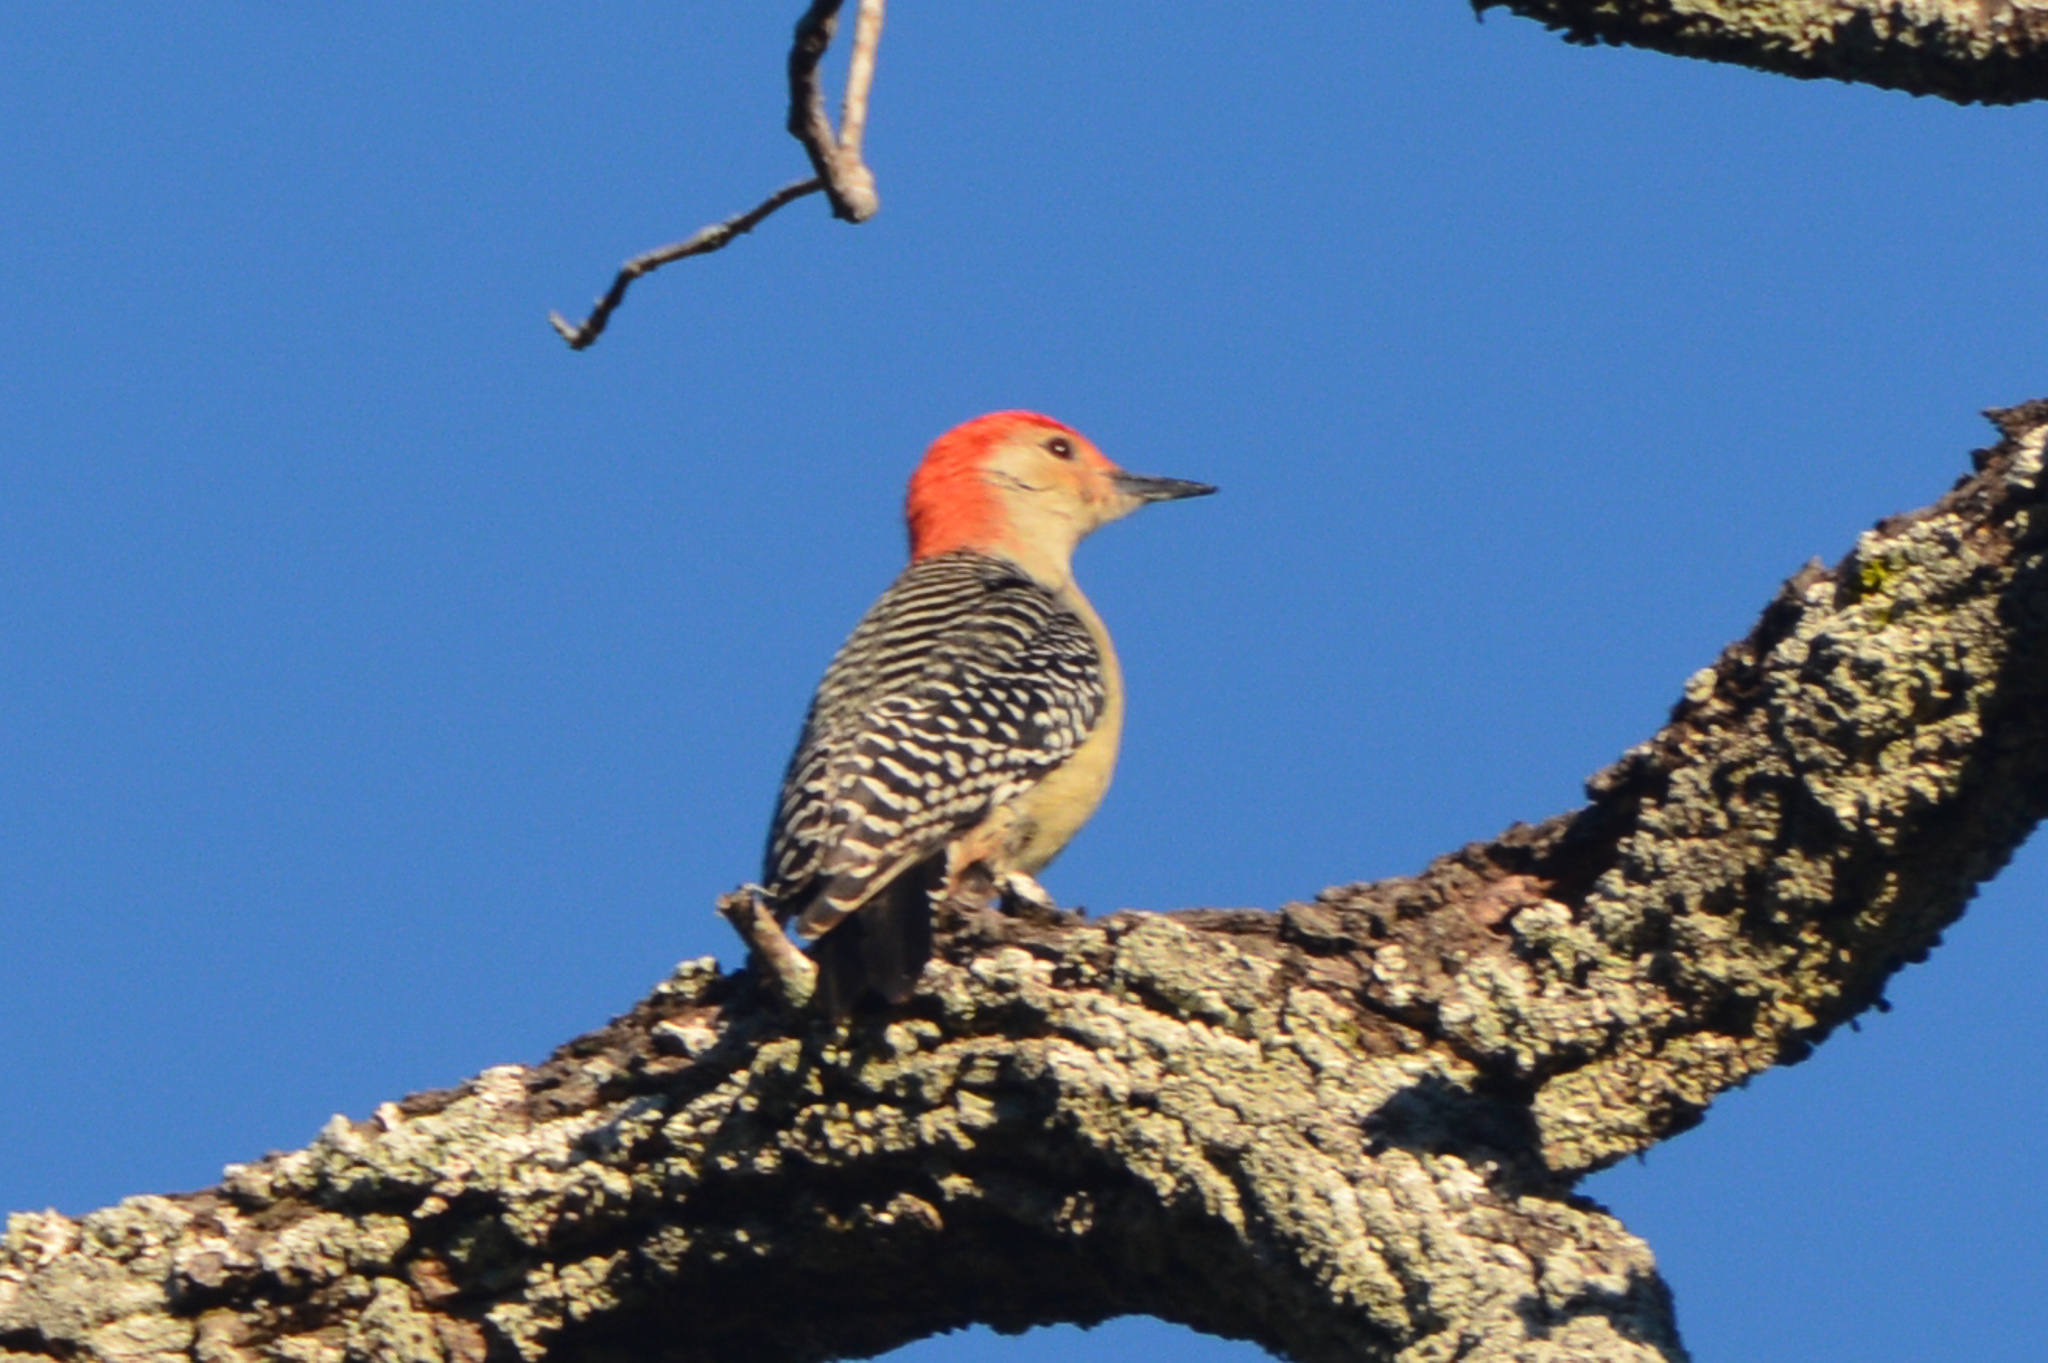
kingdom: Animalia
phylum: Chordata
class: Aves
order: Piciformes
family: Picidae
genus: Melanerpes
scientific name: Melanerpes carolinus
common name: Red-bellied woodpecker
